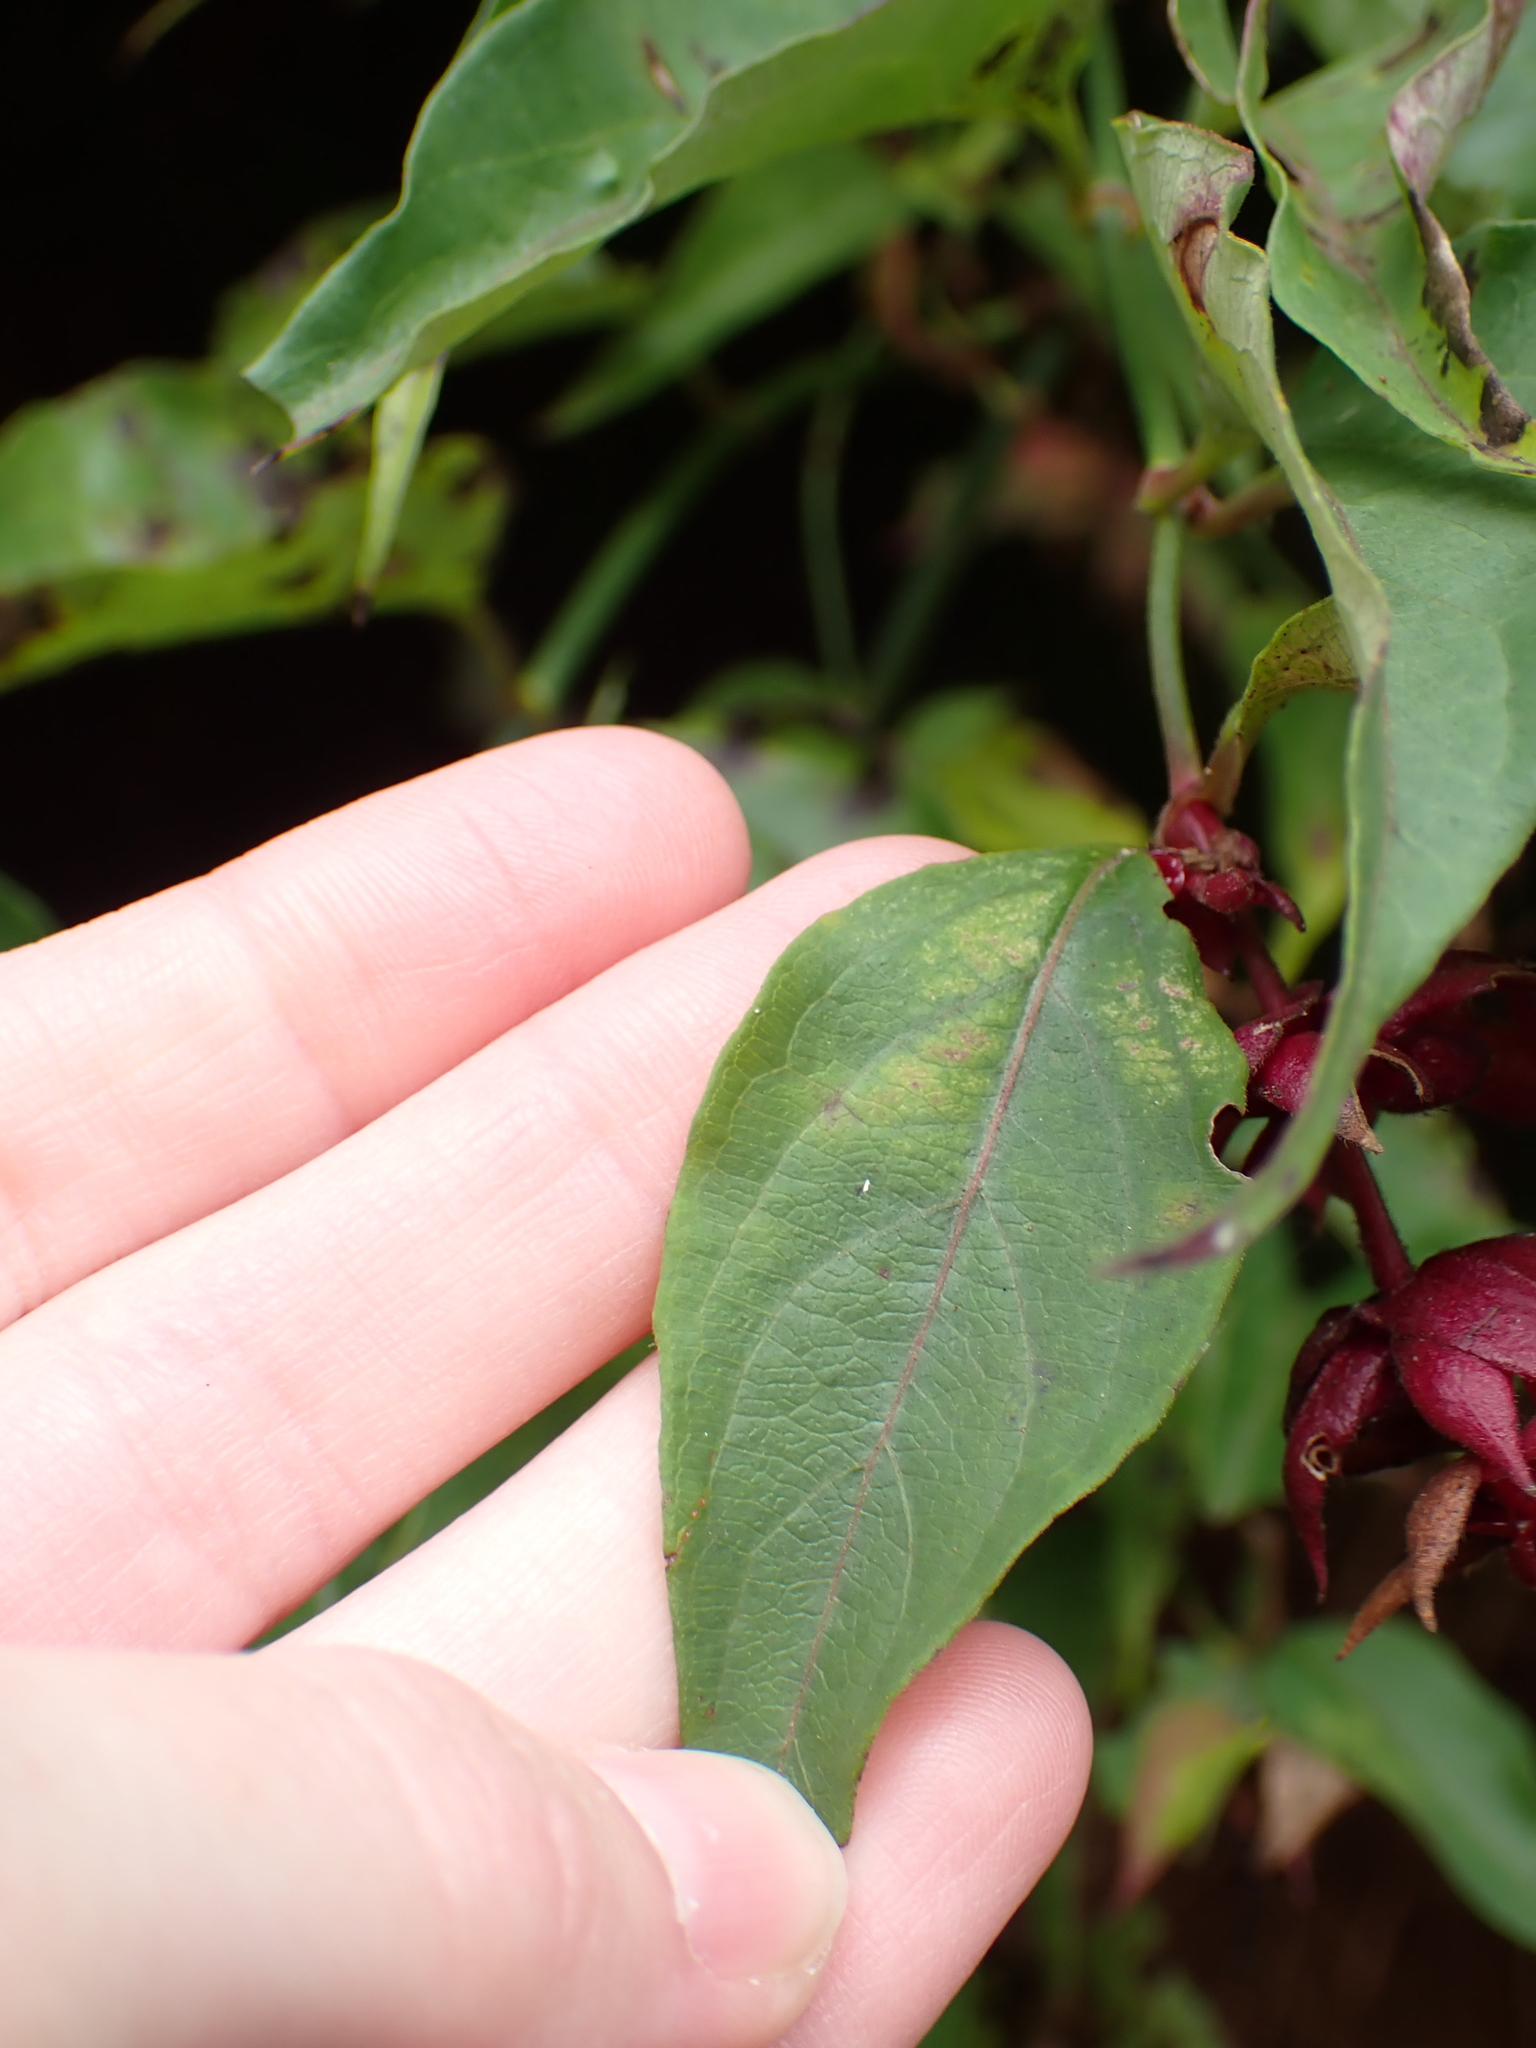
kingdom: Plantae
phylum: Tracheophyta
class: Magnoliopsida
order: Dipsacales
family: Caprifoliaceae
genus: Leycesteria
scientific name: Leycesteria formosa
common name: Himalayan honeysuckle
